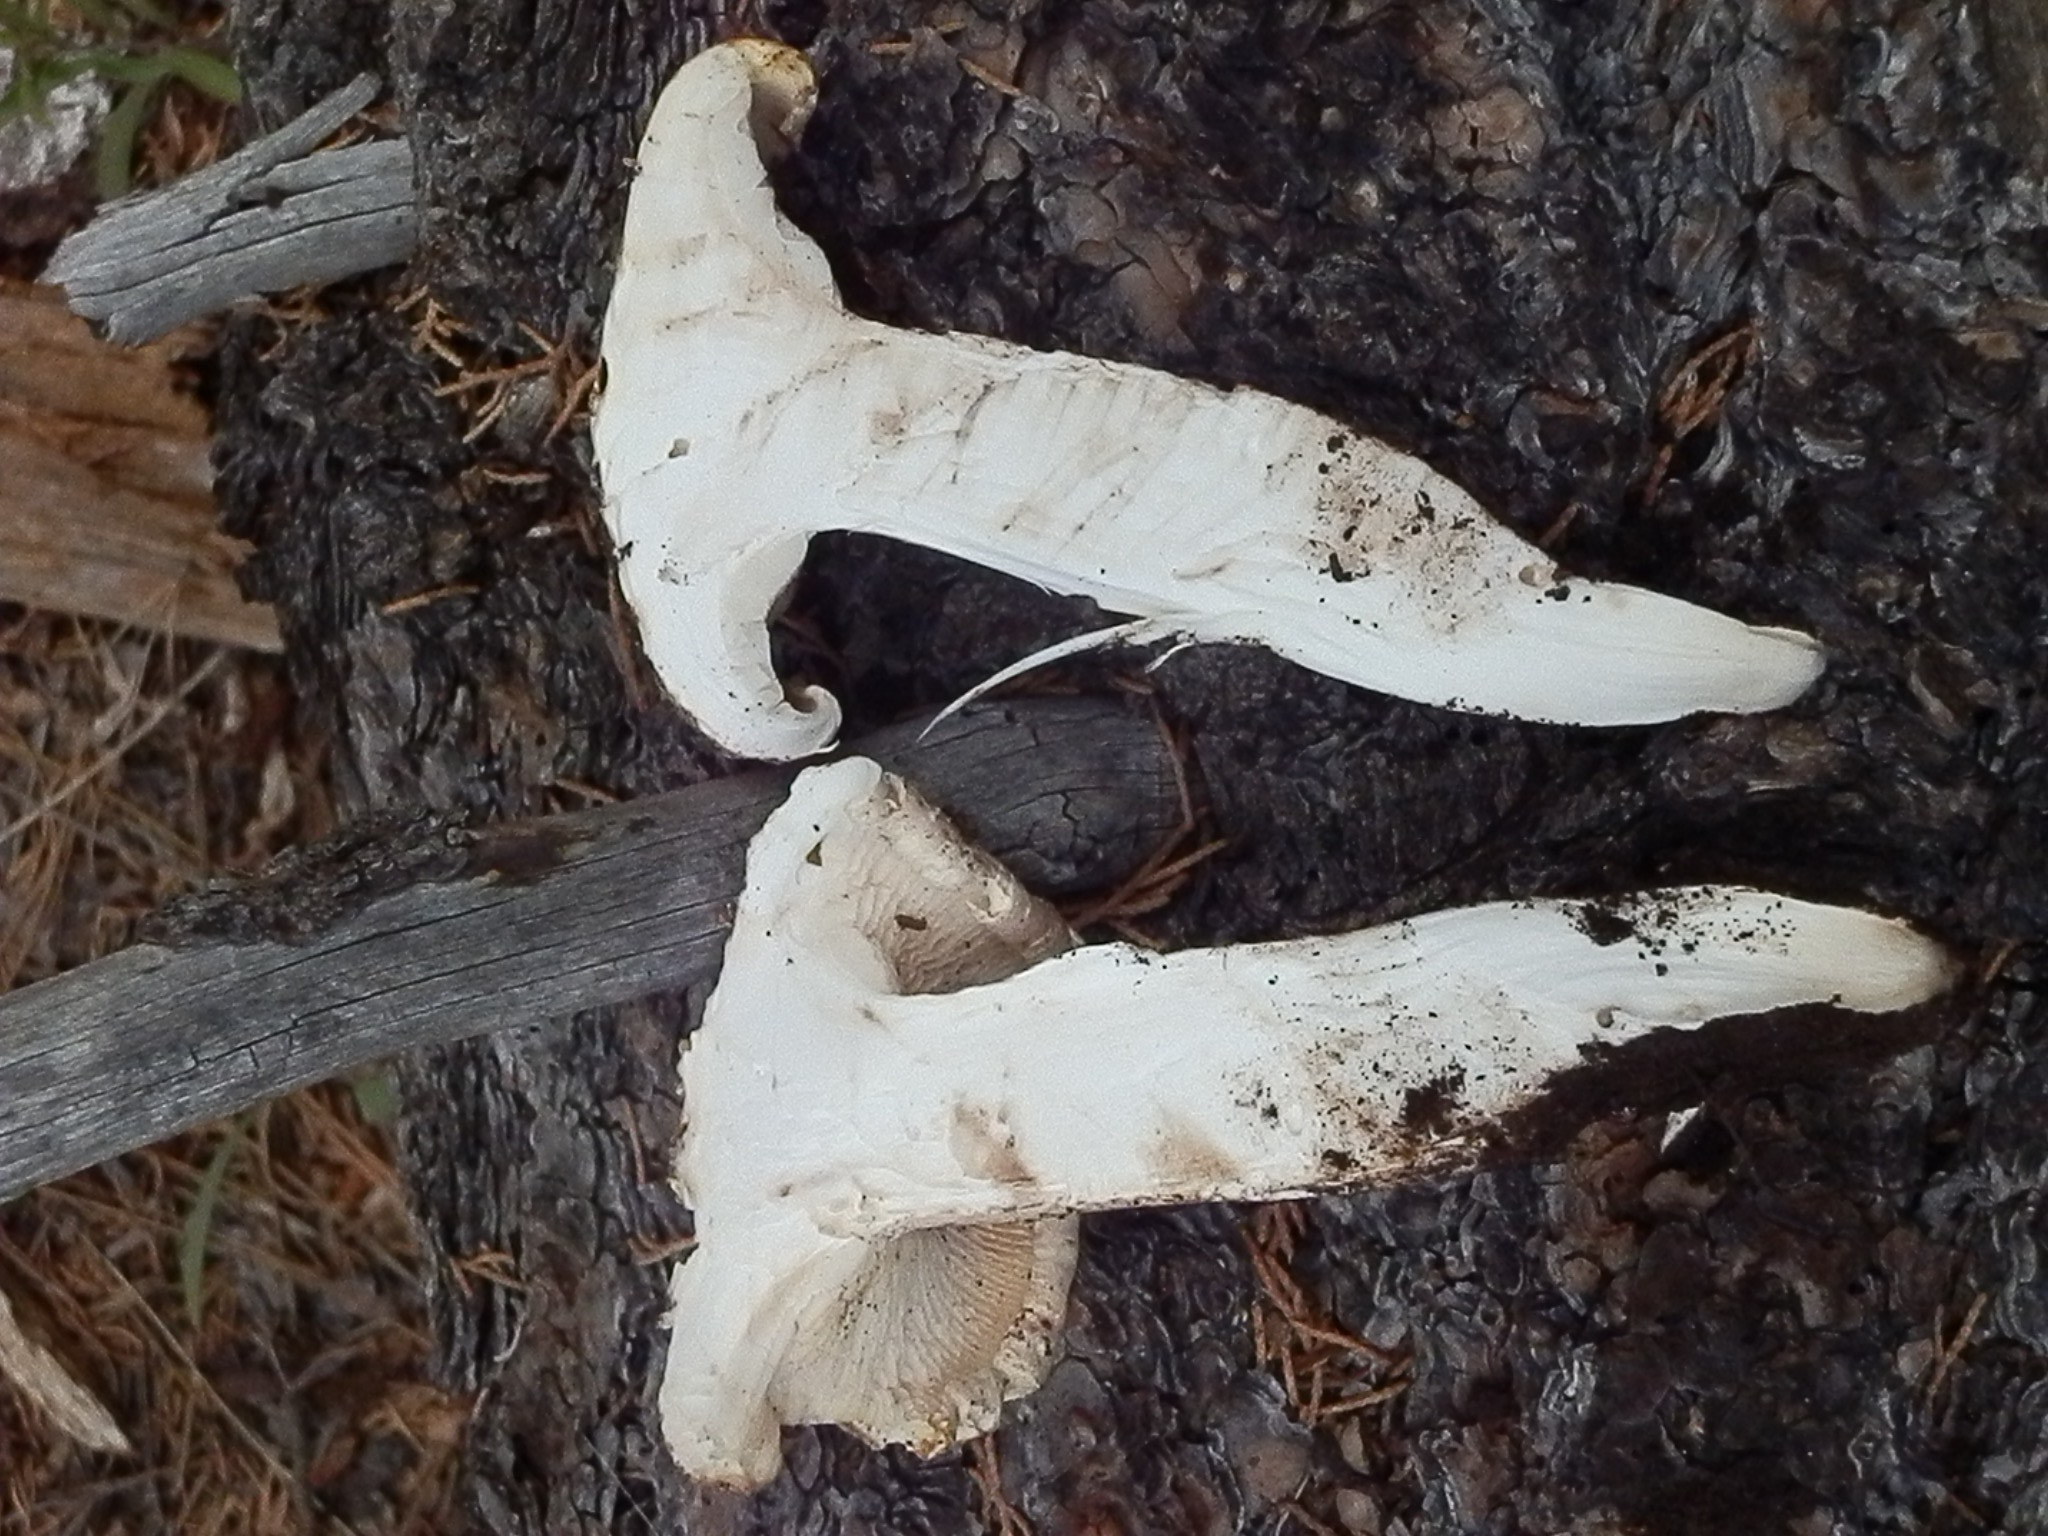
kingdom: Fungi
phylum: Basidiomycota
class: Agaricomycetes
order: Gloeophyllales
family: Gloeophyllaceae
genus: Neolentinus
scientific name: Neolentinus ponderosus
